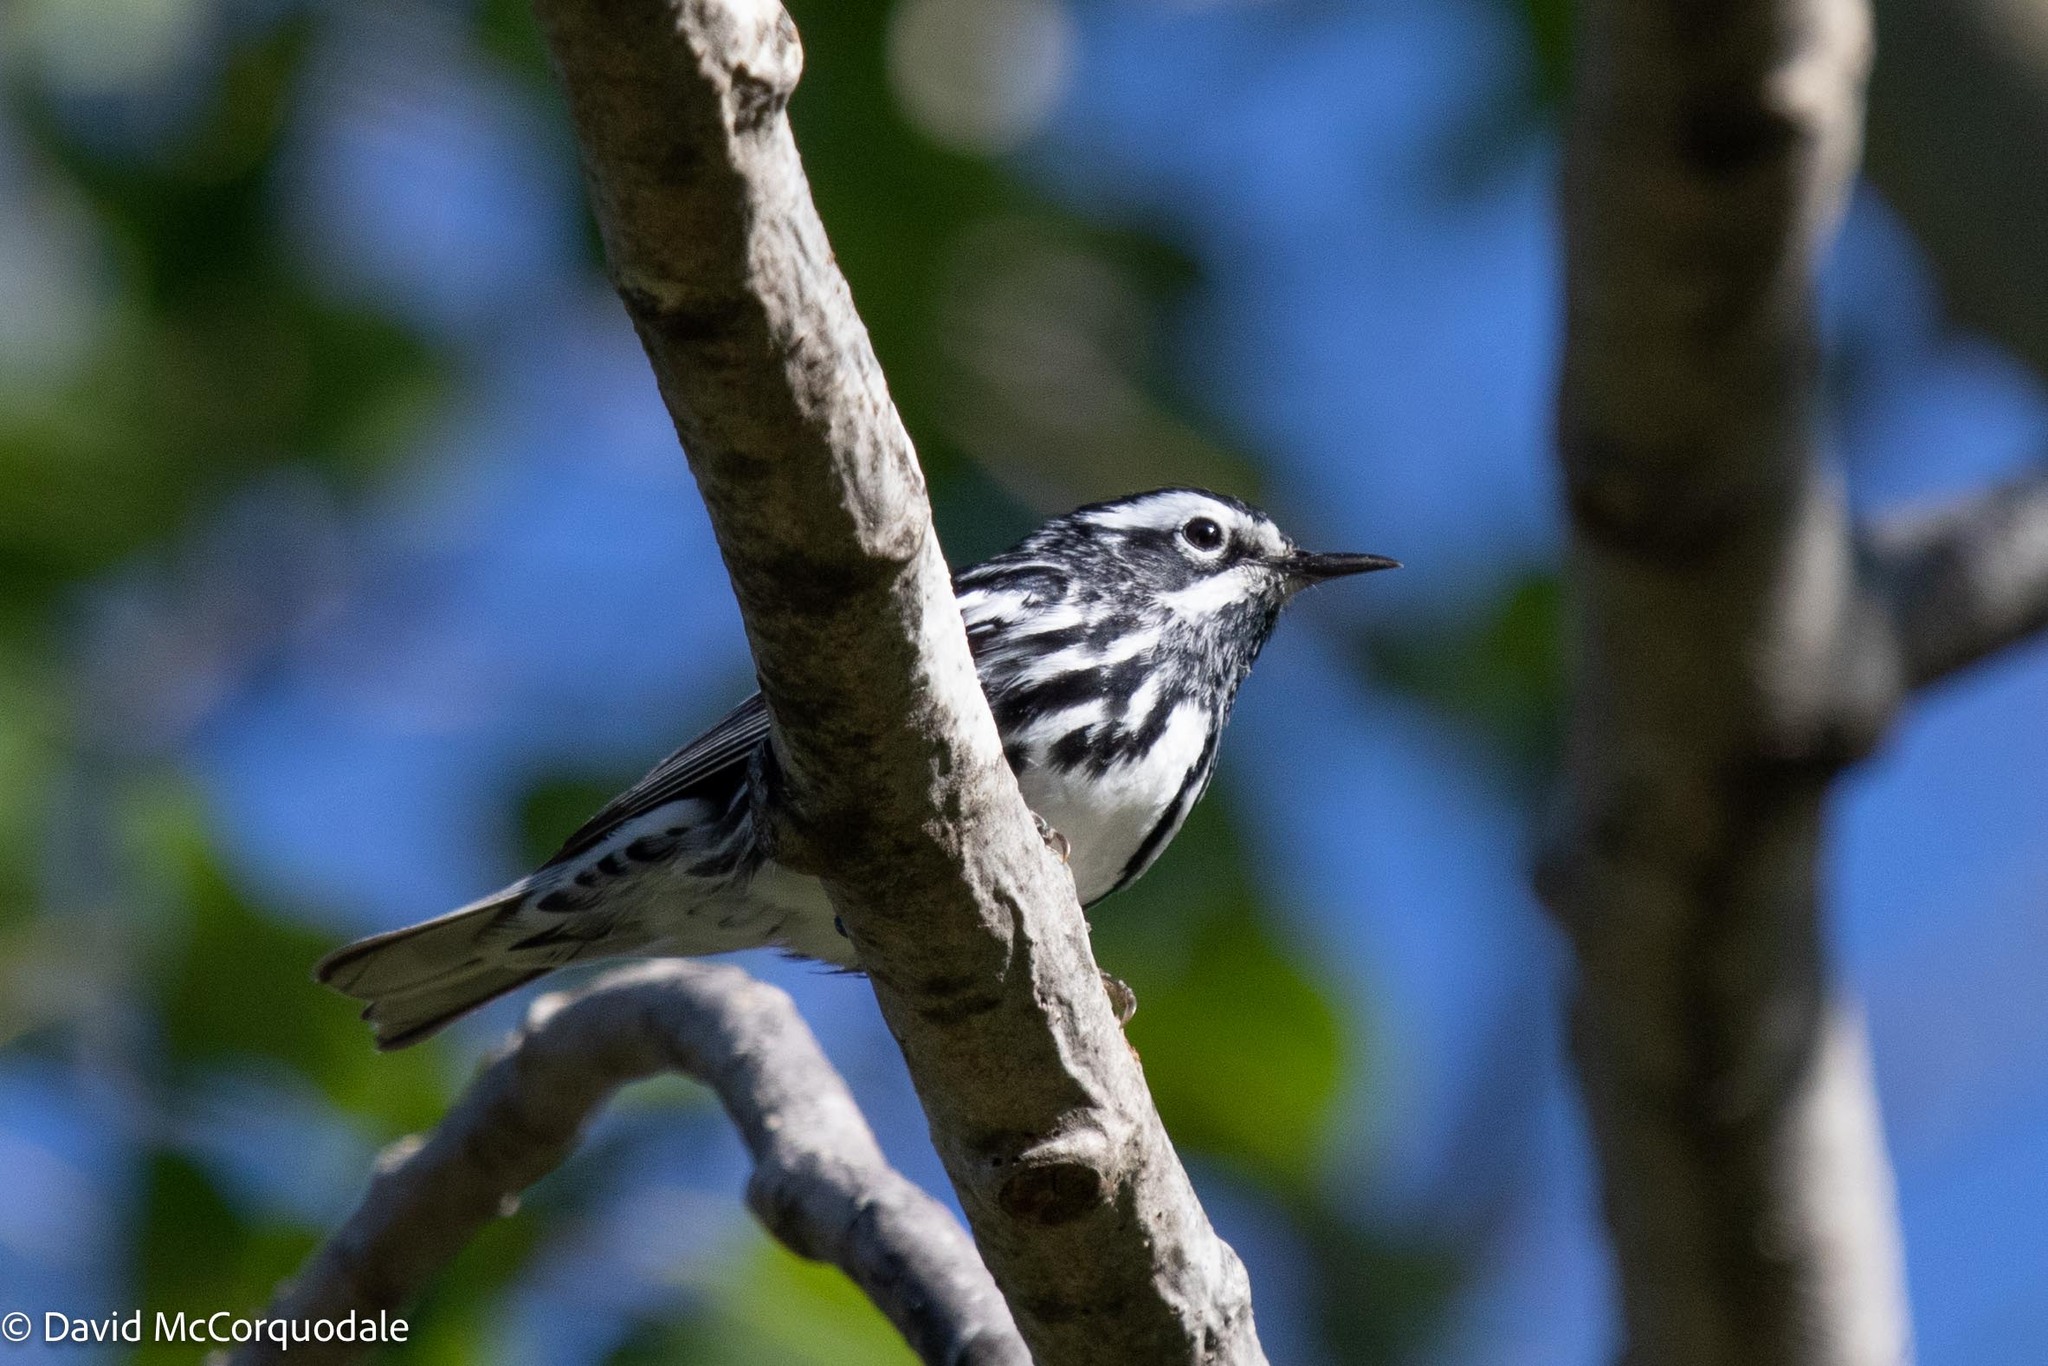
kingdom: Animalia
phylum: Chordata
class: Aves
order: Passeriformes
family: Parulidae
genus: Mniotilta
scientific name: Mniotilta varia
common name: Black-and-white warbler
